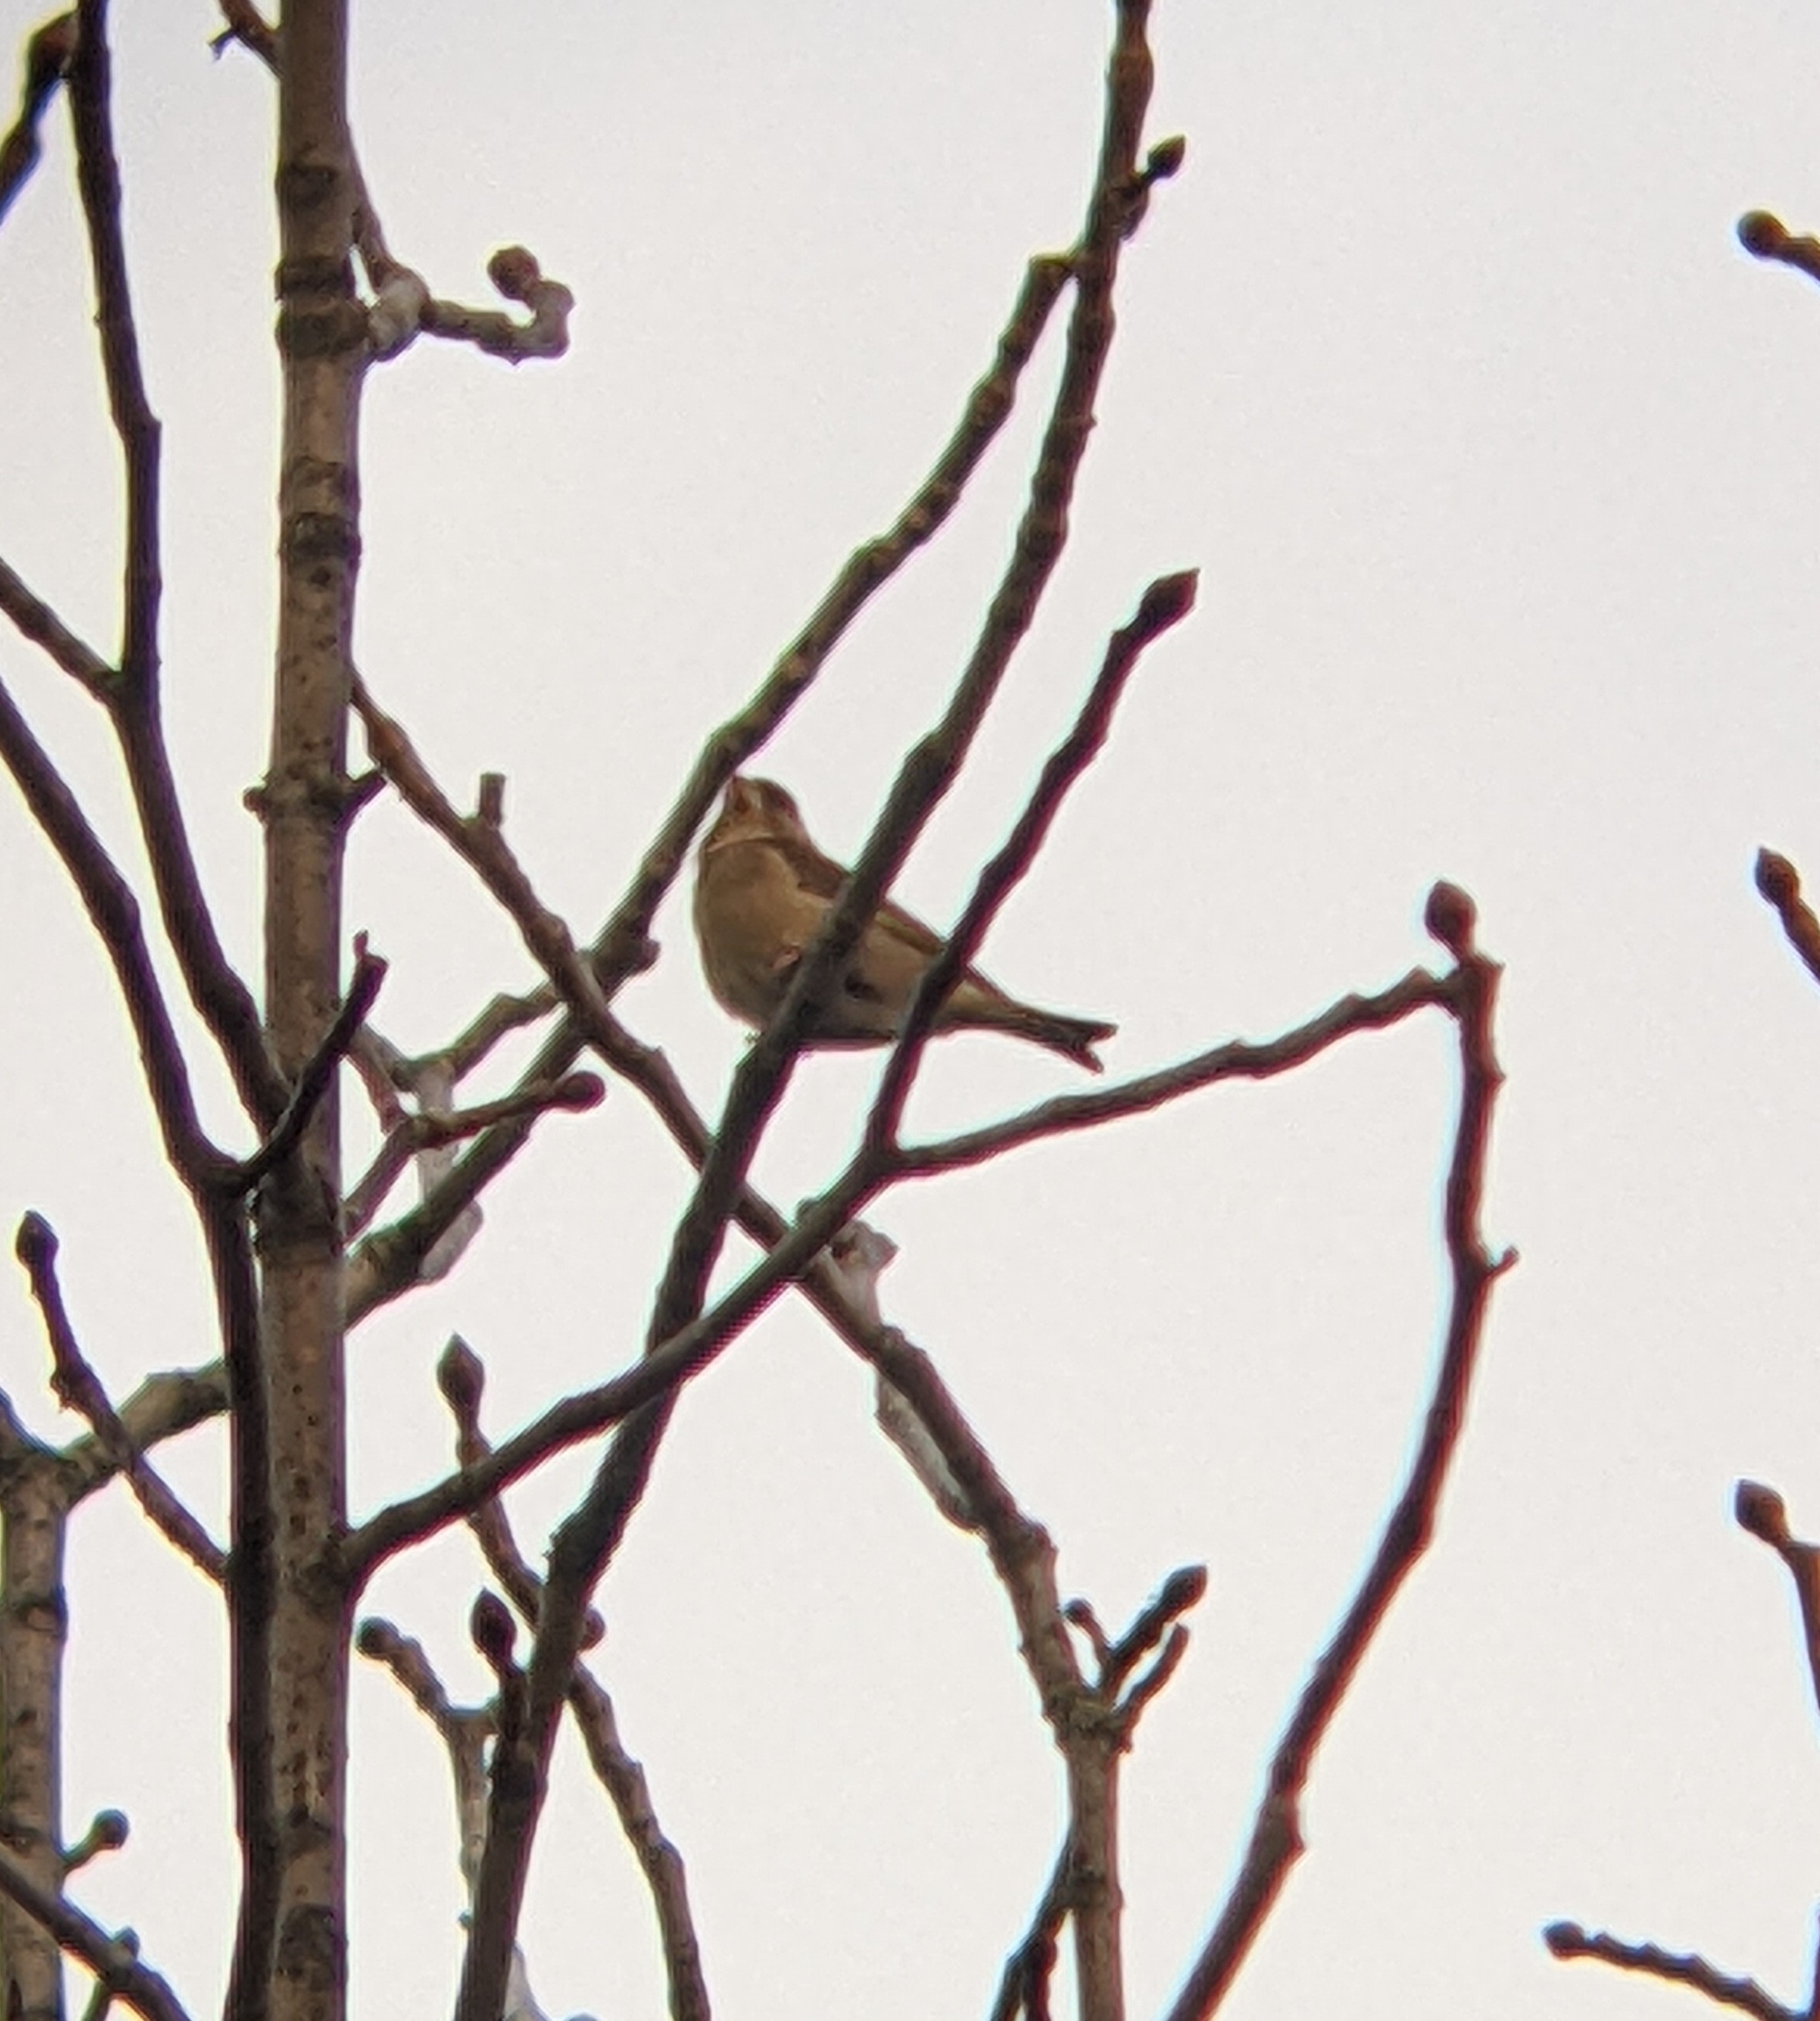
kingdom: Plantae
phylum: Tracheophyta
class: Liliopsida
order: Poales
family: Poaceae
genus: Chloris
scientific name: Chloris chloris
